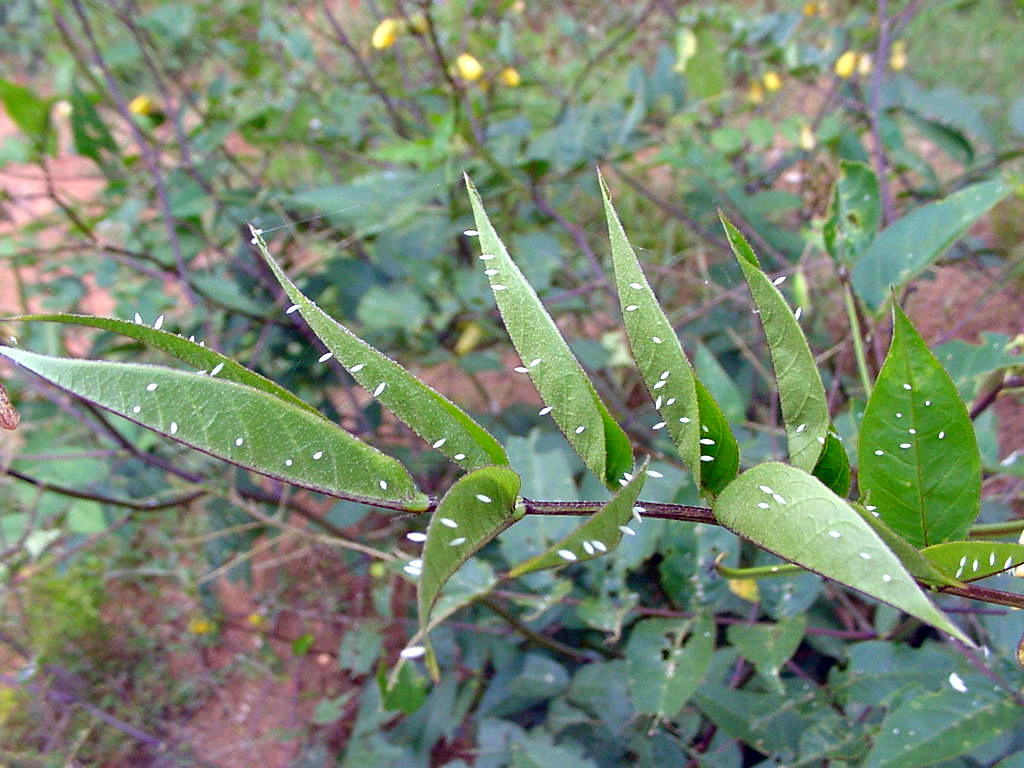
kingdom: Plantae
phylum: Tracheophyta
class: Magnoliopsida
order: Fabales
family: Fabaceae
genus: Senna
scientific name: Senna occidentalis
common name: Septicweed
